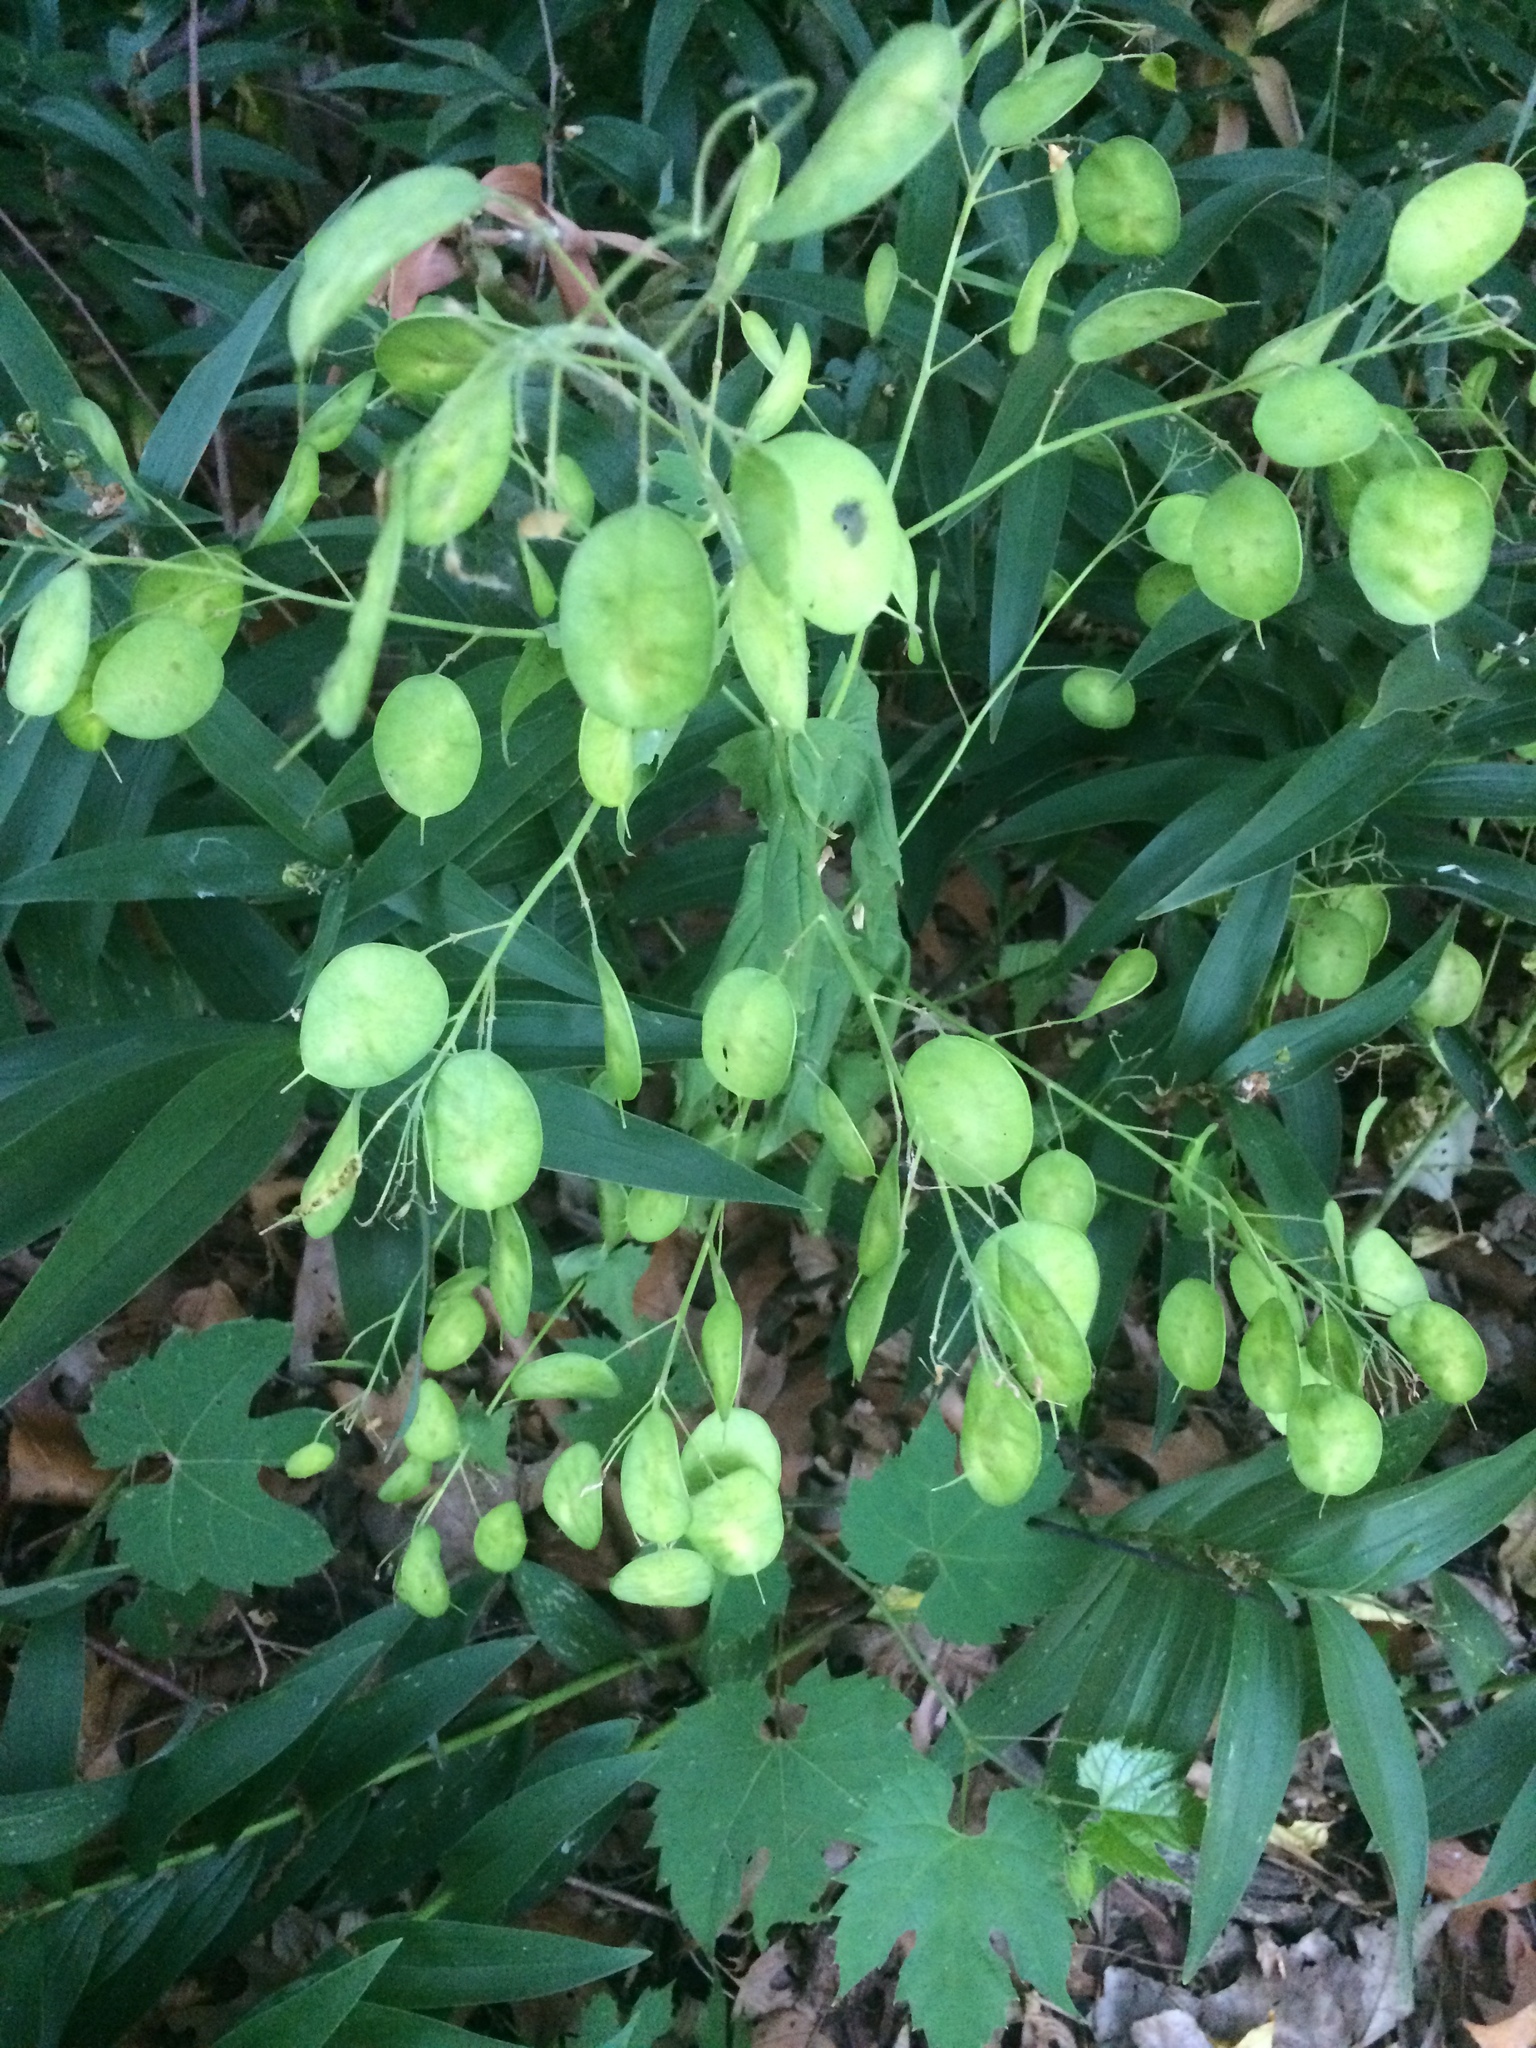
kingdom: Plantae
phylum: Tracheophyta
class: Magnoliopsida
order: Brassicales
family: Brassicaceae
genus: Lunaria
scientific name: Lunaria annua
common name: Honesty
